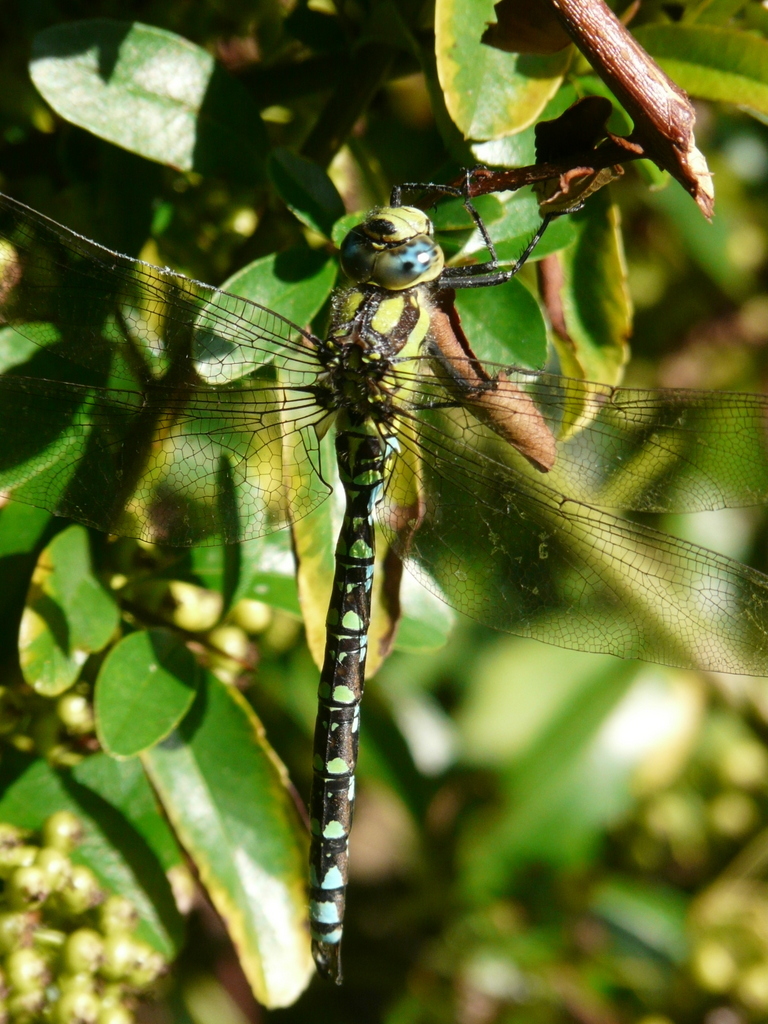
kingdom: Animalia
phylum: Arthropoda
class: Insecta
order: Odonata
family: Aeshnidae
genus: Aeshna
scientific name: Aeshna cyanea
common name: Southern hawker
